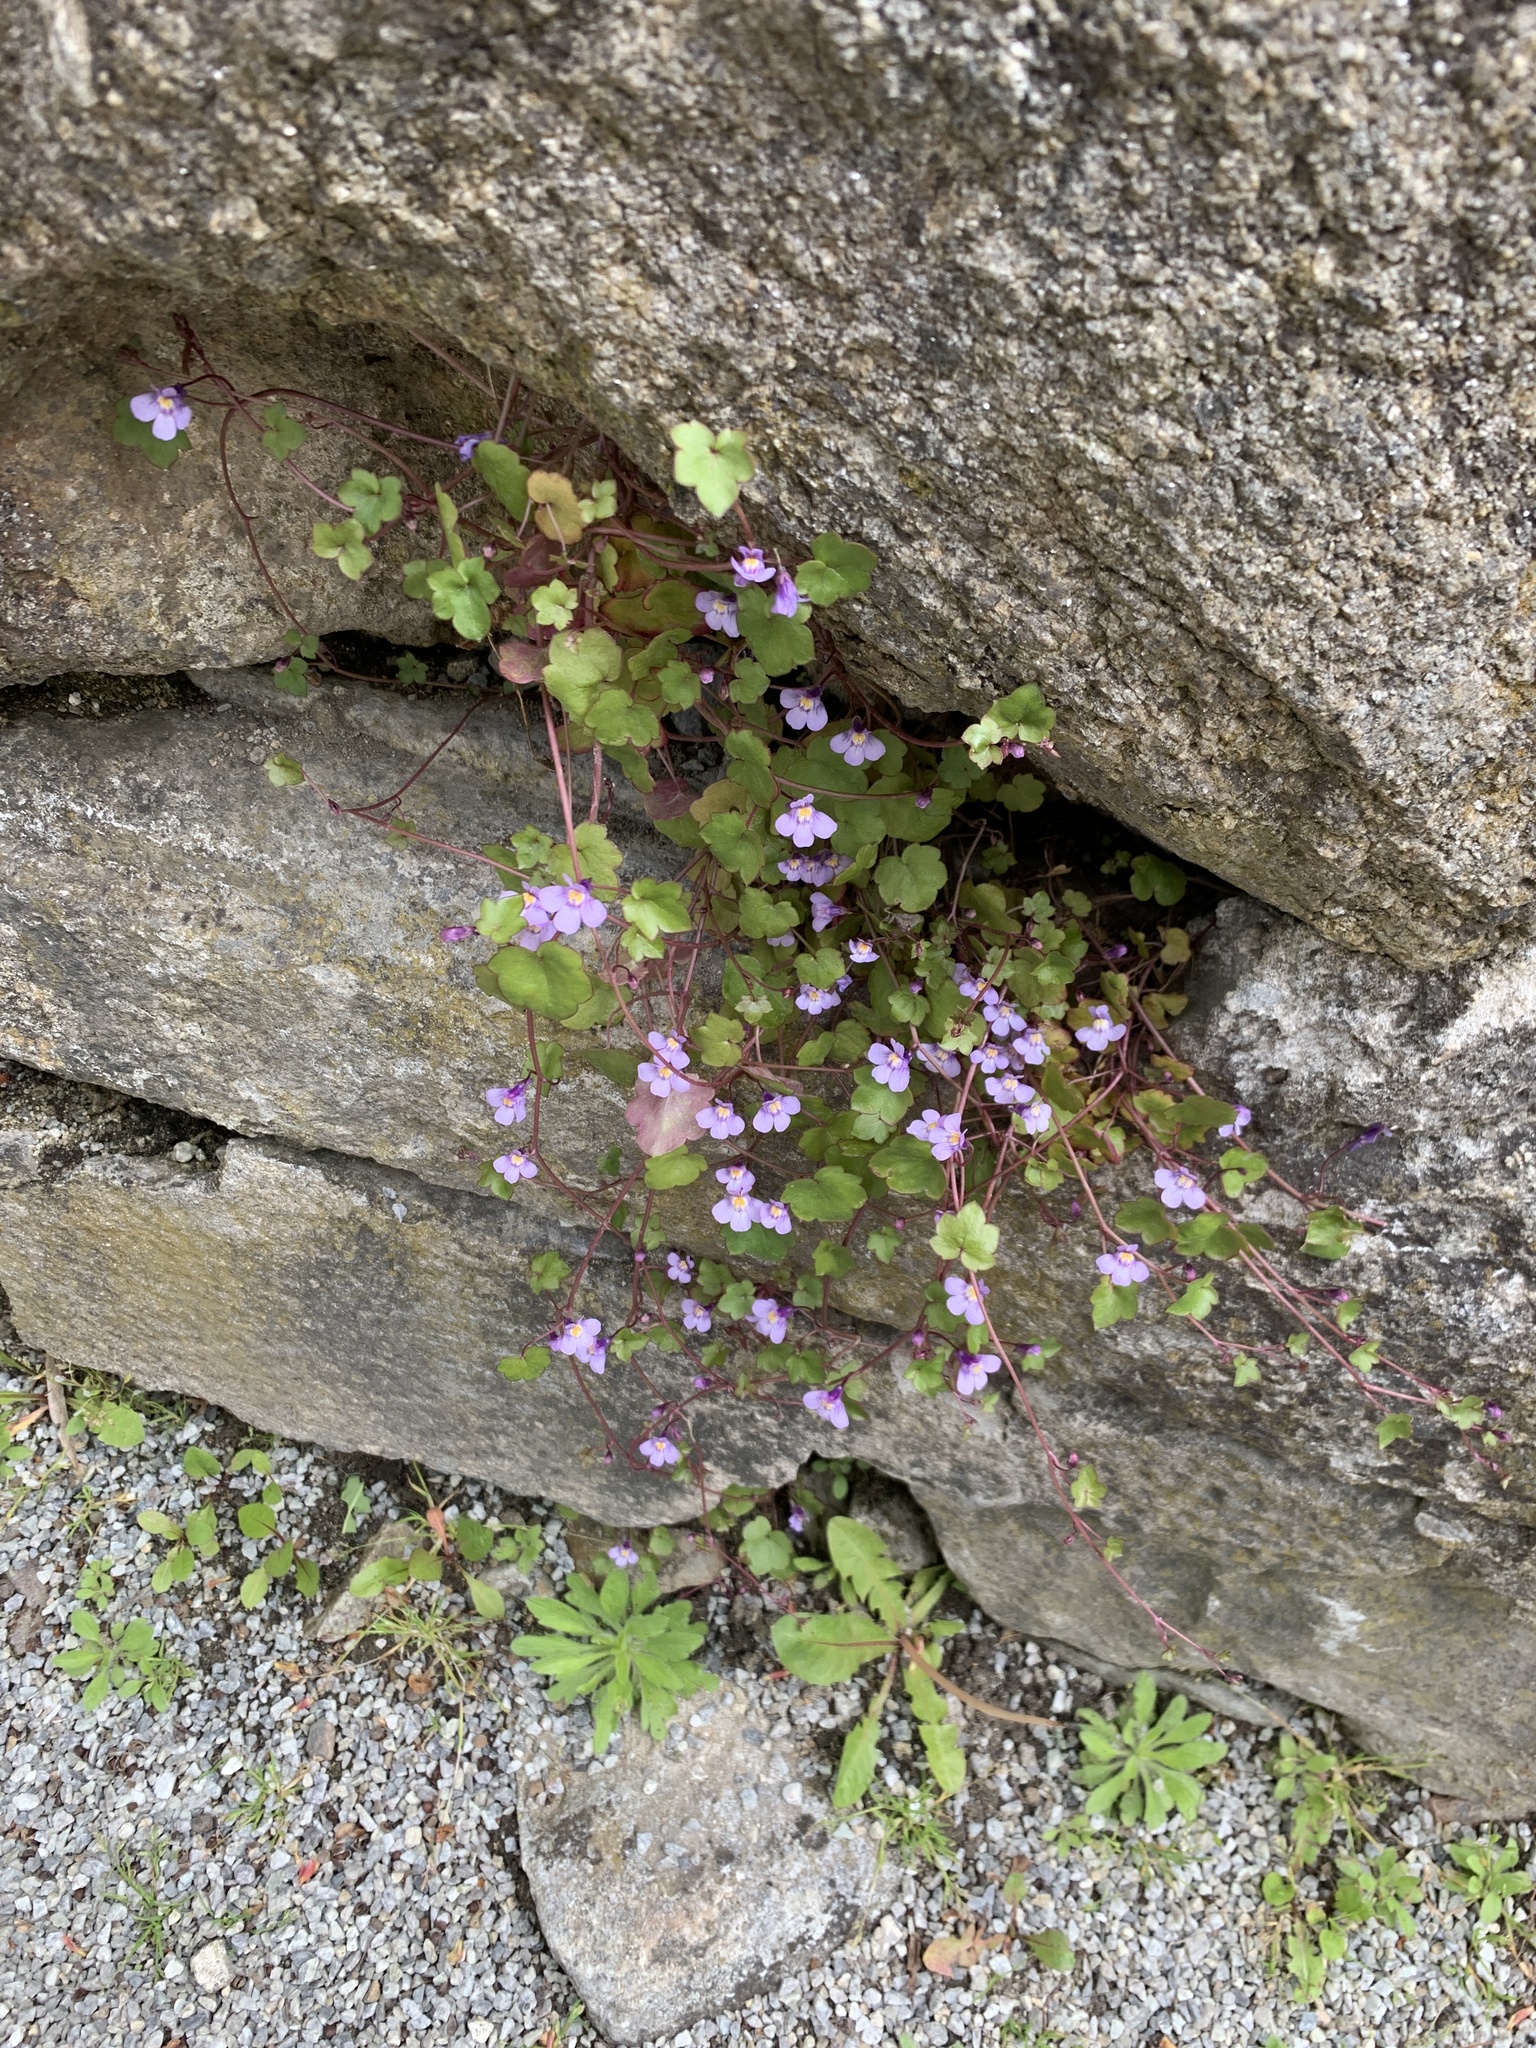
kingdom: Plantae
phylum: Tracheophyta
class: Magnoliopsida
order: Lamiales
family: Plantaginaceae
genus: Cymbalaria
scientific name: Cymbalaria muralis
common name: Ivy-leaved toadflax
